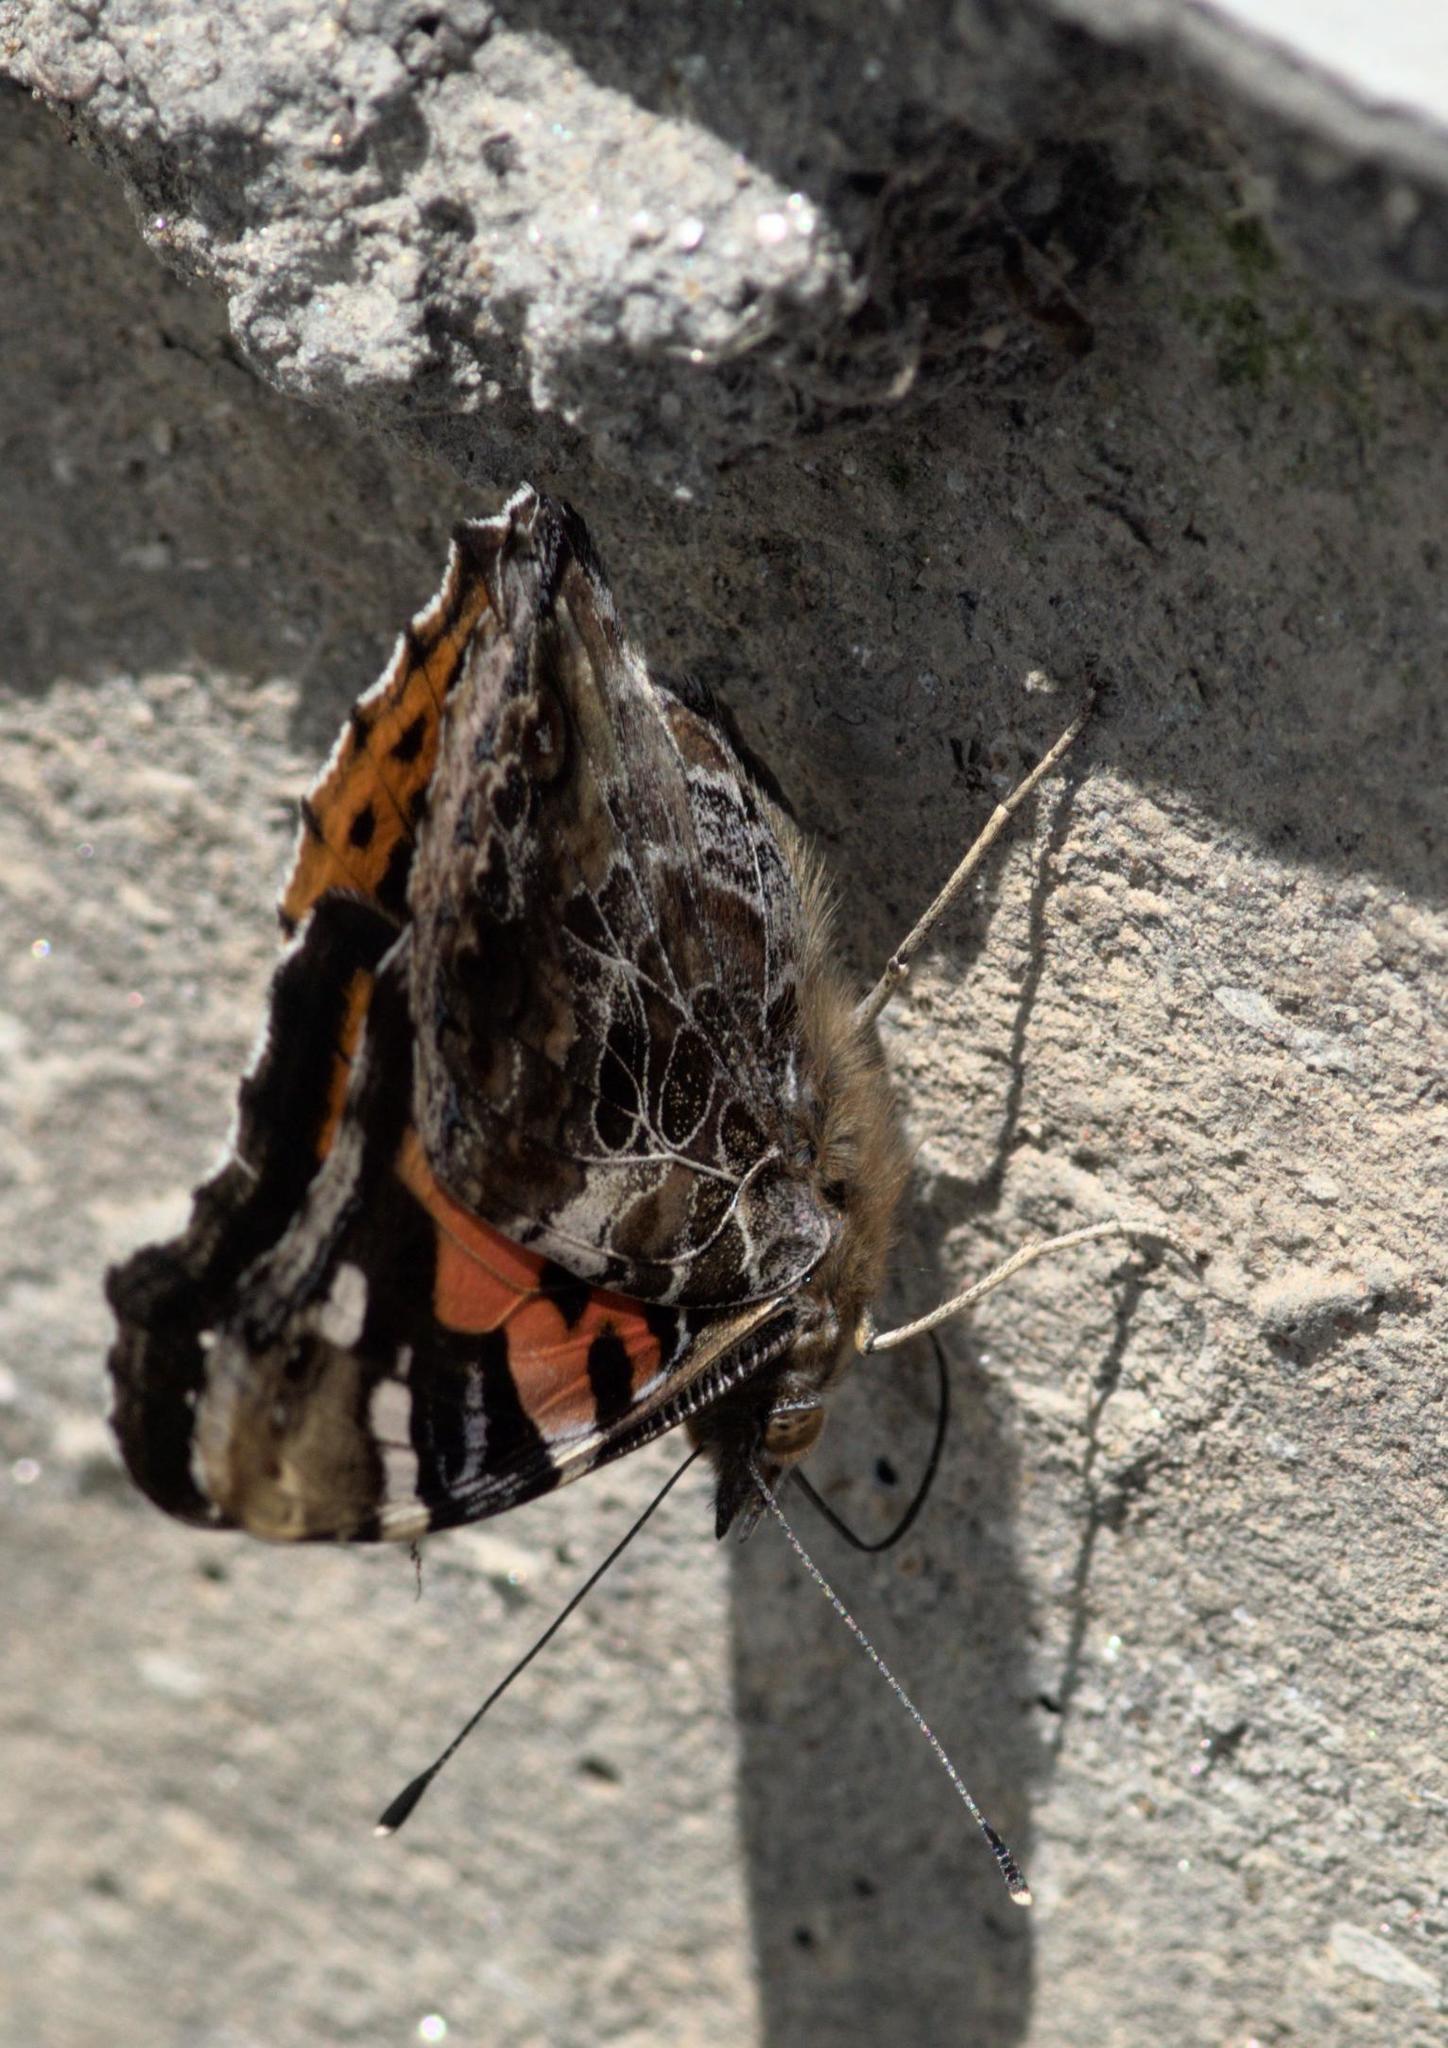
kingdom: Animalia
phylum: Arthropoda
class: Insecta
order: Lepidoptera
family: Nymphalidae
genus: Vanessa
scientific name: Vanessa indica
